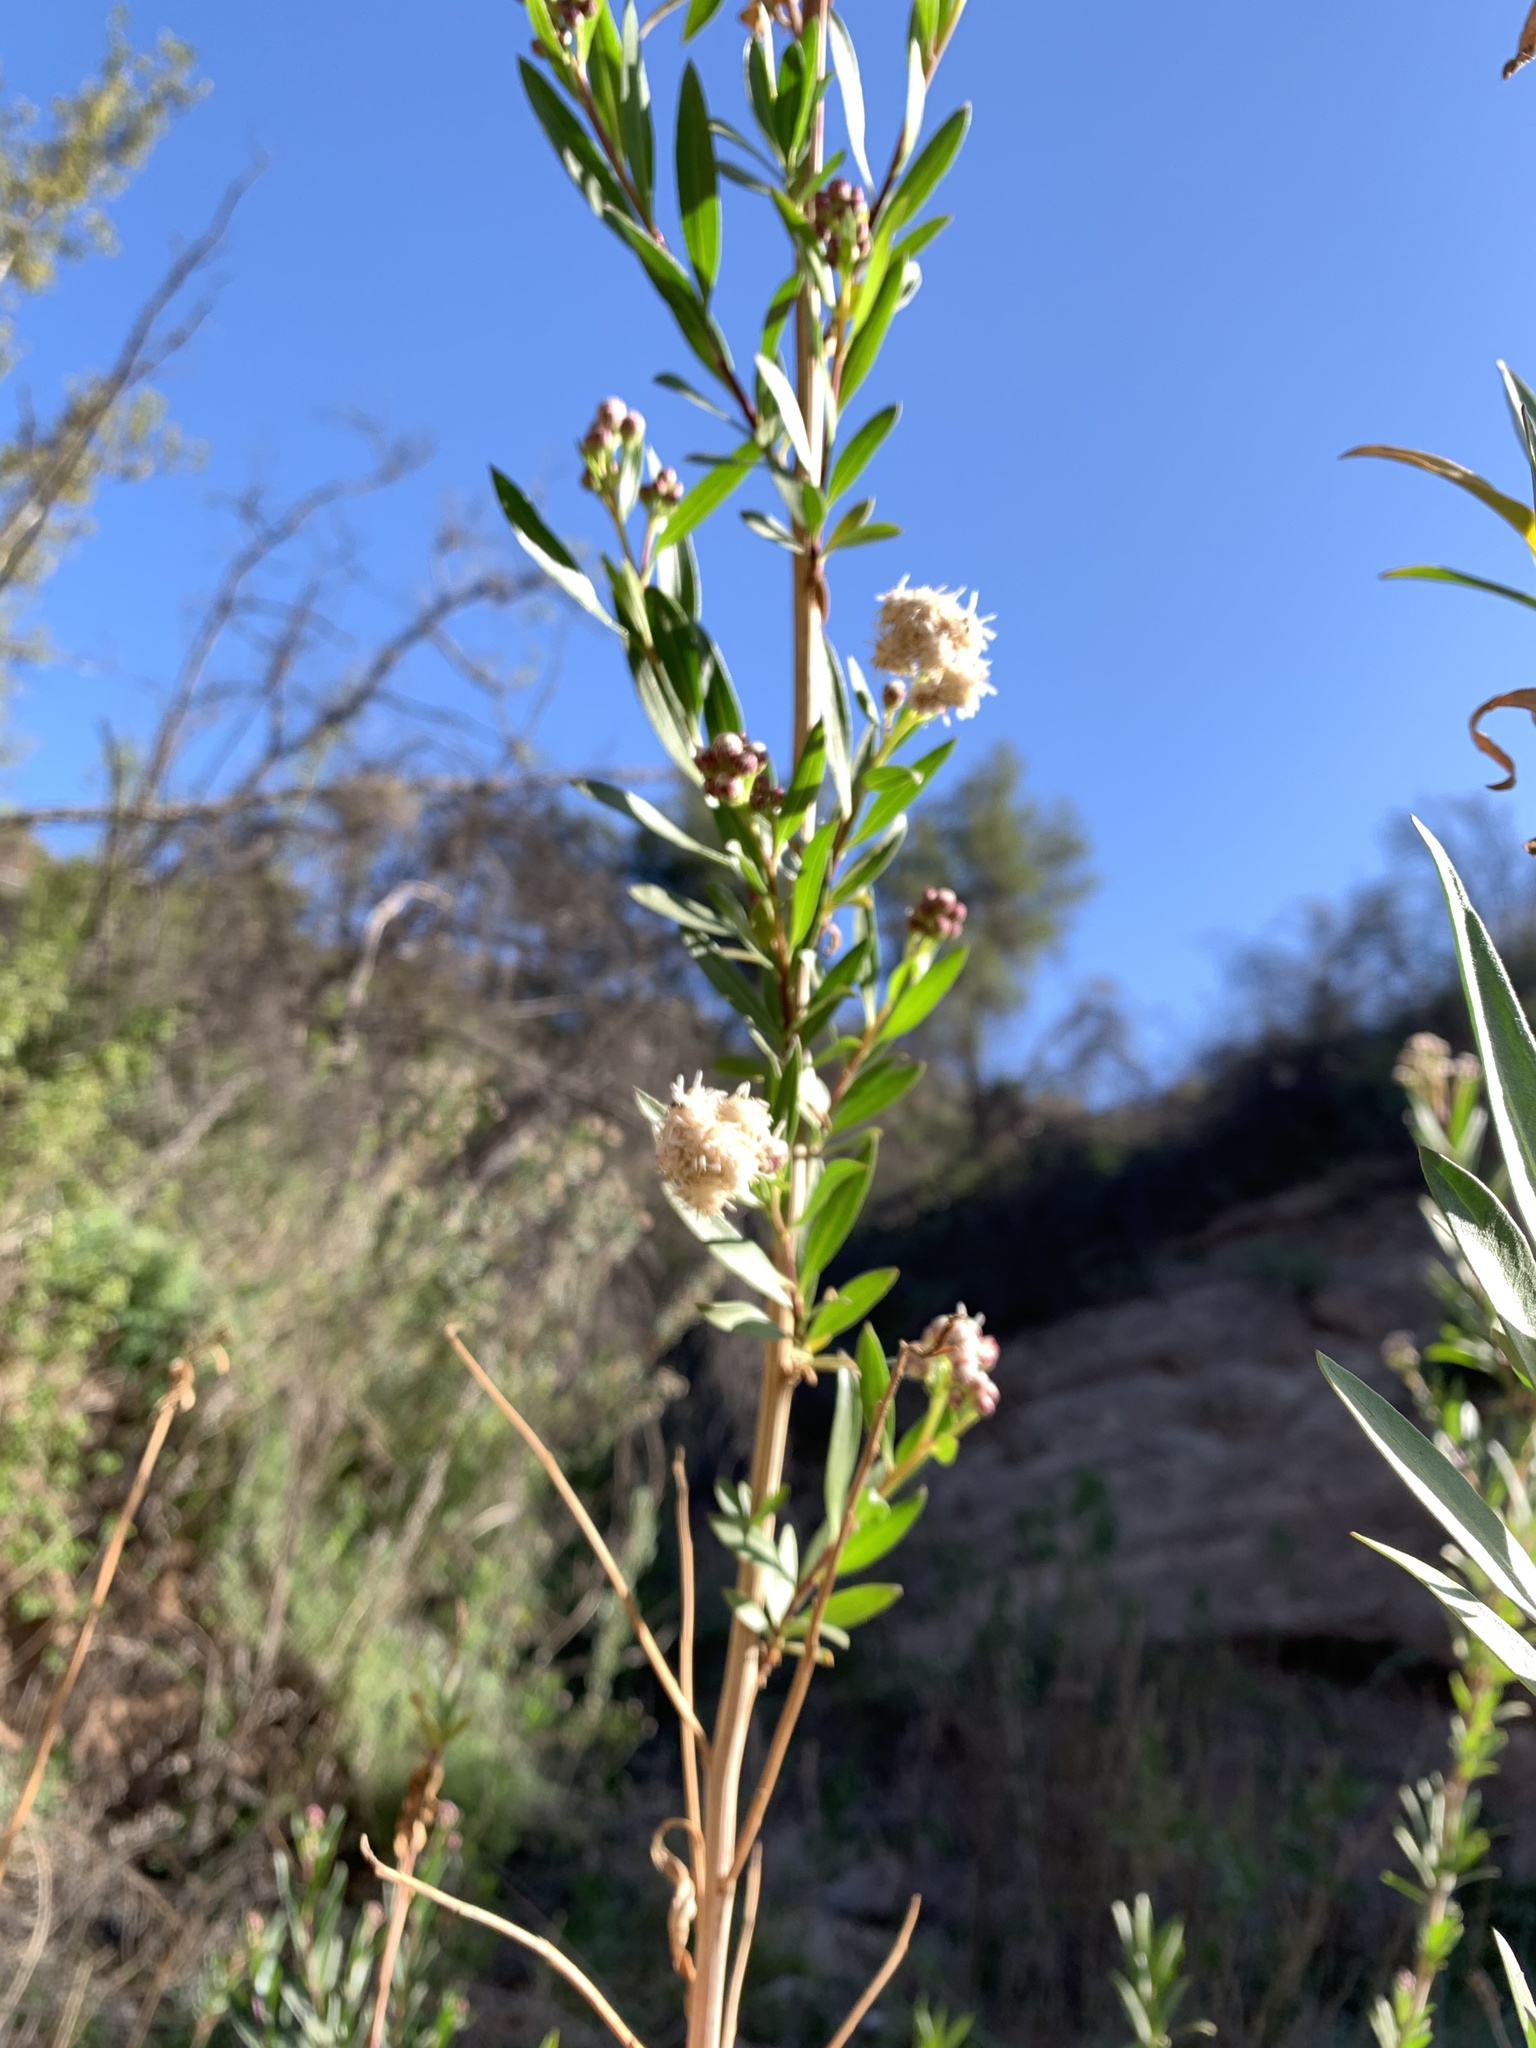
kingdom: Plantae
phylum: Tracheophyta
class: Magnoliopsida
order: Asterales
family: Asteraceae
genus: Baccharis
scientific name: Baccharis salicifolia
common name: Sticky baccharis
